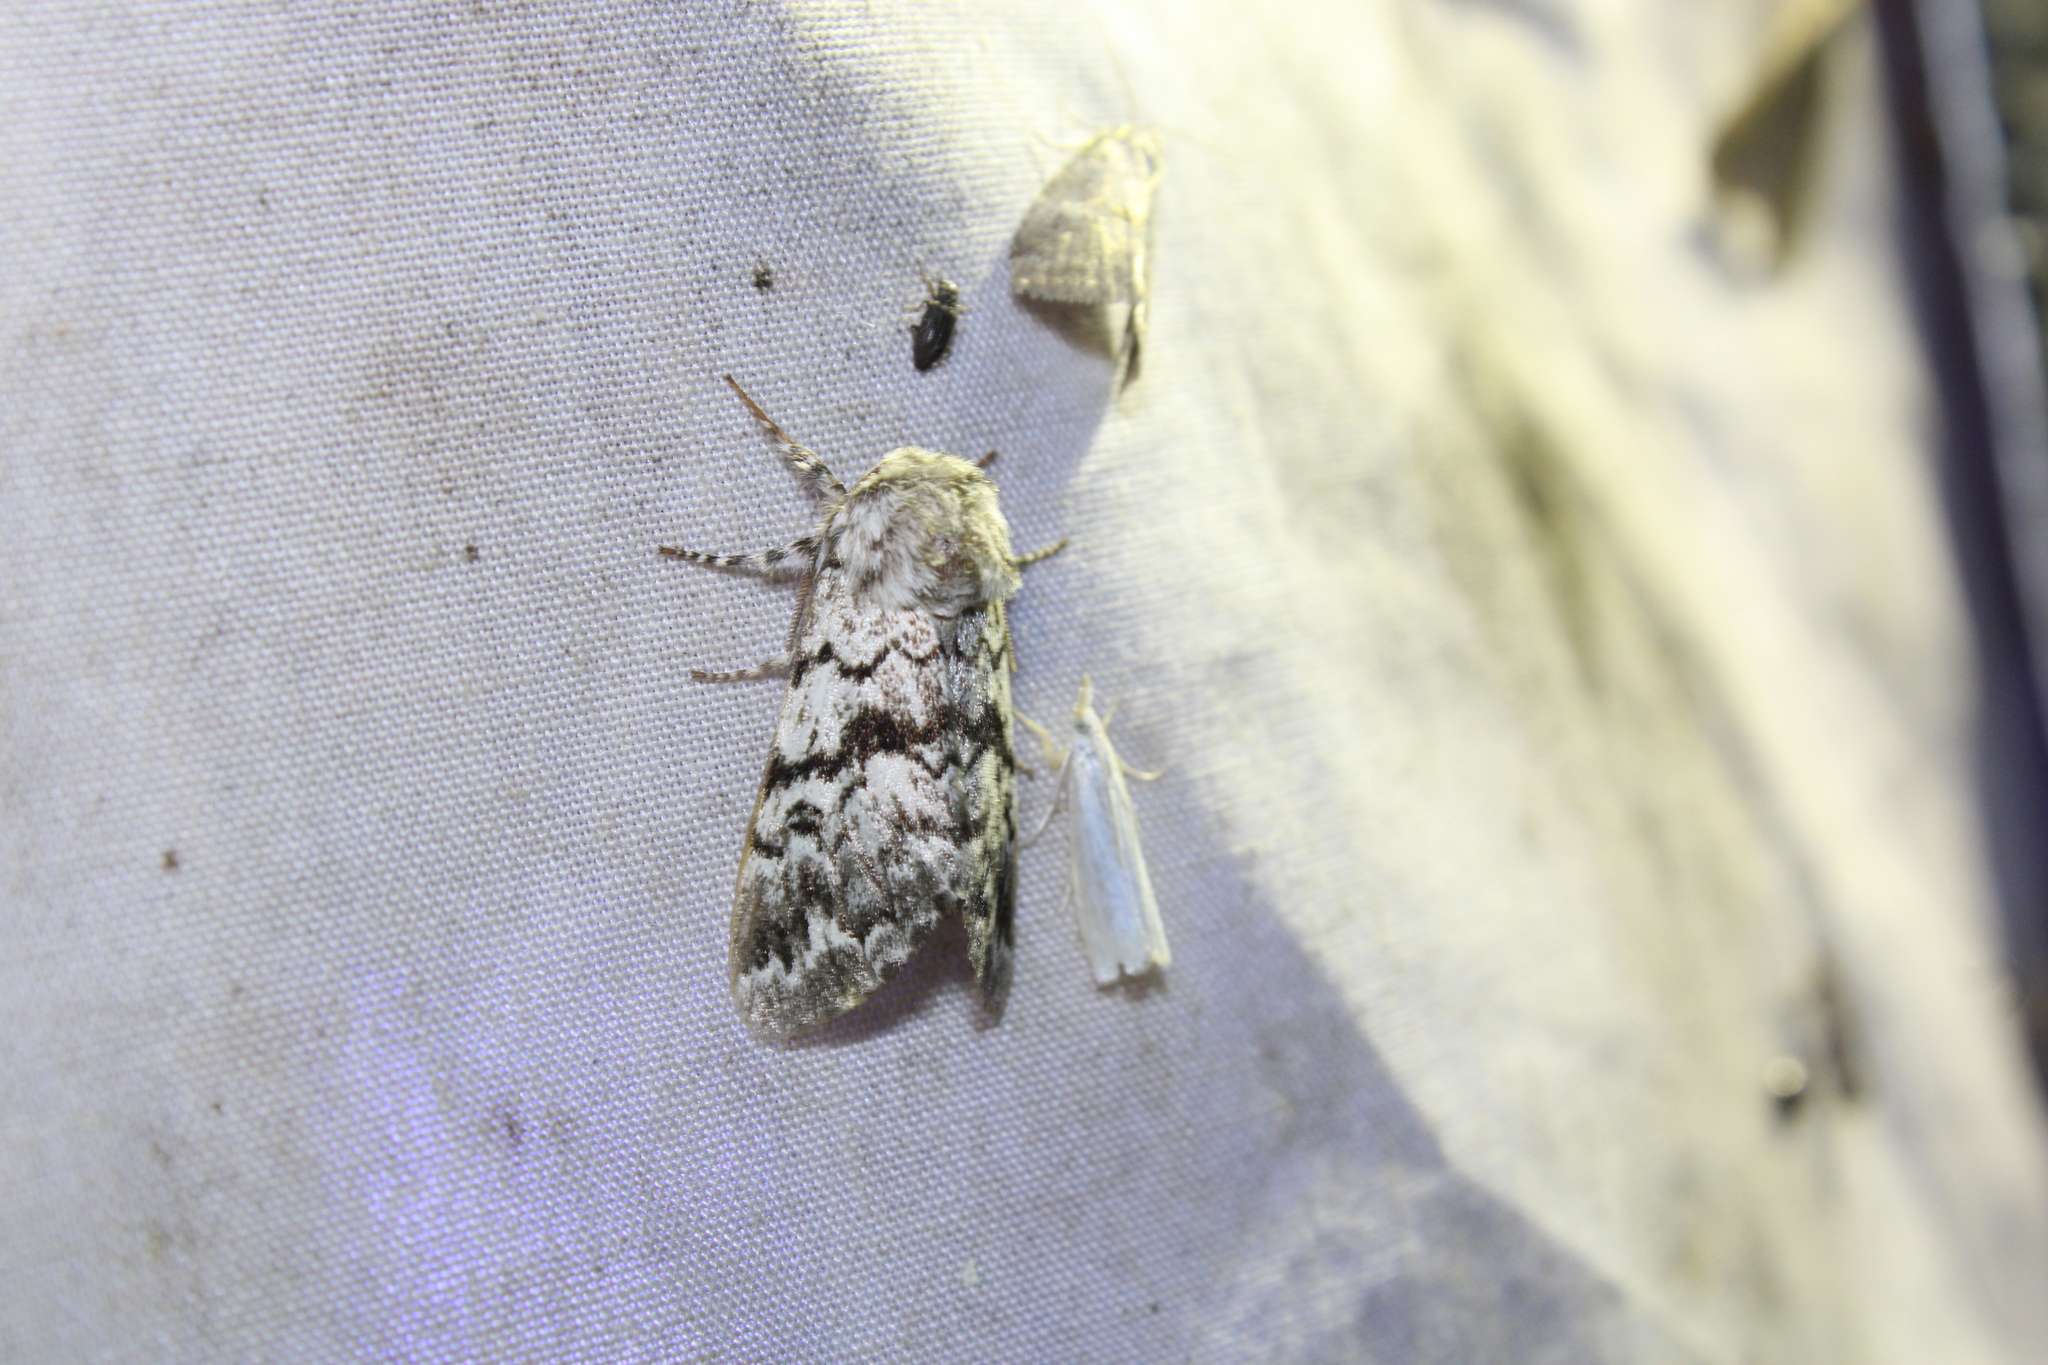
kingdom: Animalia
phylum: Arthropoda
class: Insecta
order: Lepidoptera
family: Noctuidae
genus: Panthea
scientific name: Panthea acronyctoides
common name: Black zigzag moth
